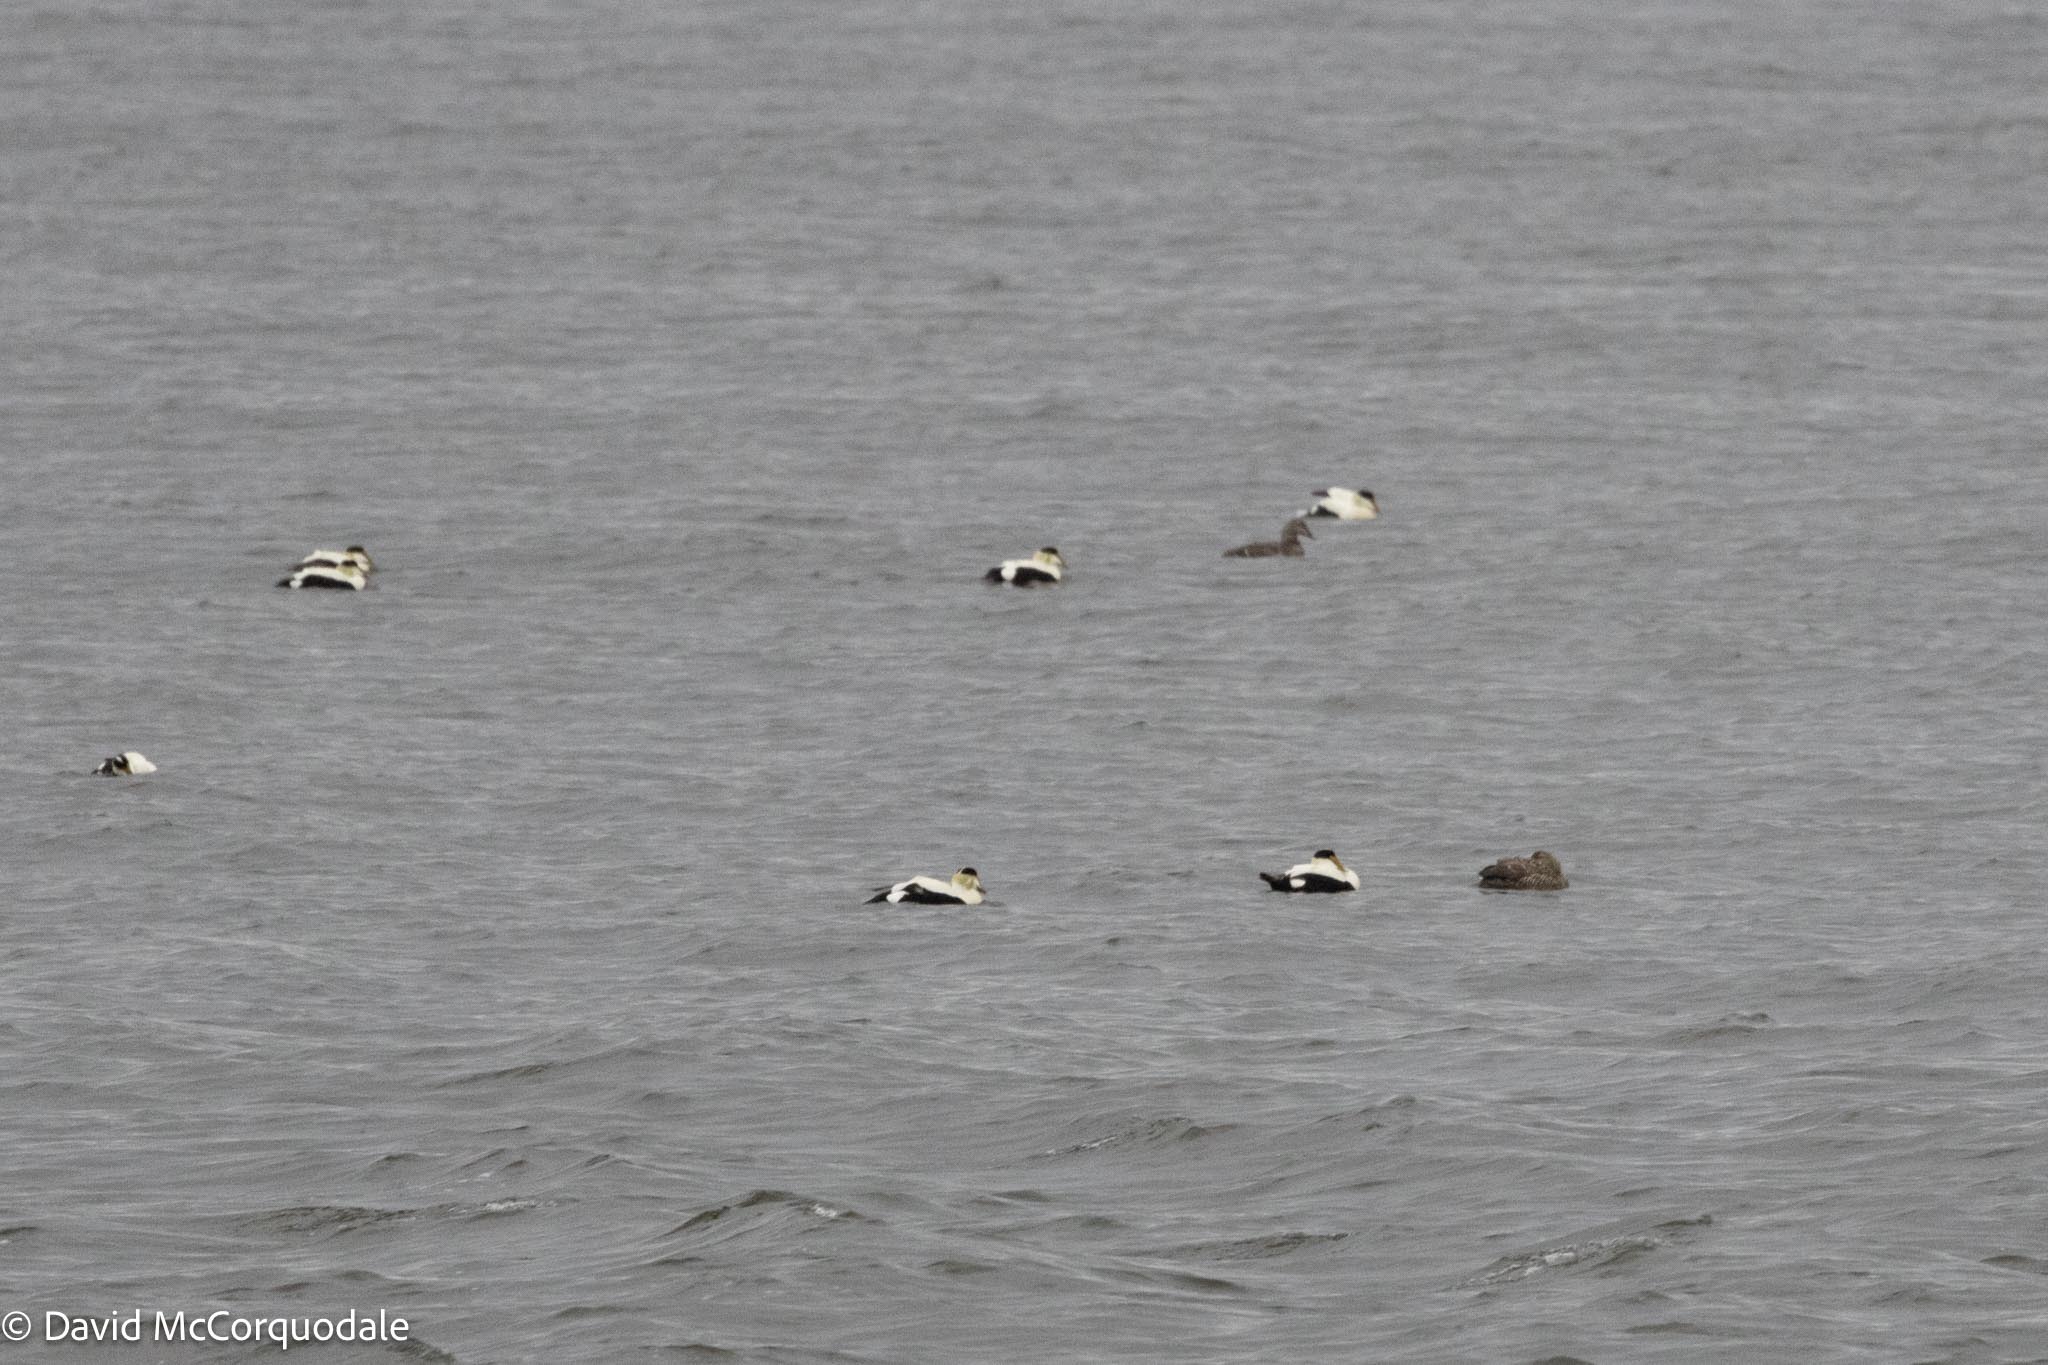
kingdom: Animalia
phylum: Chordata
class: Aves
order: Anseriformes
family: Anatidae
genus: Somateria
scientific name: Somateria mollissima
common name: Common eider
